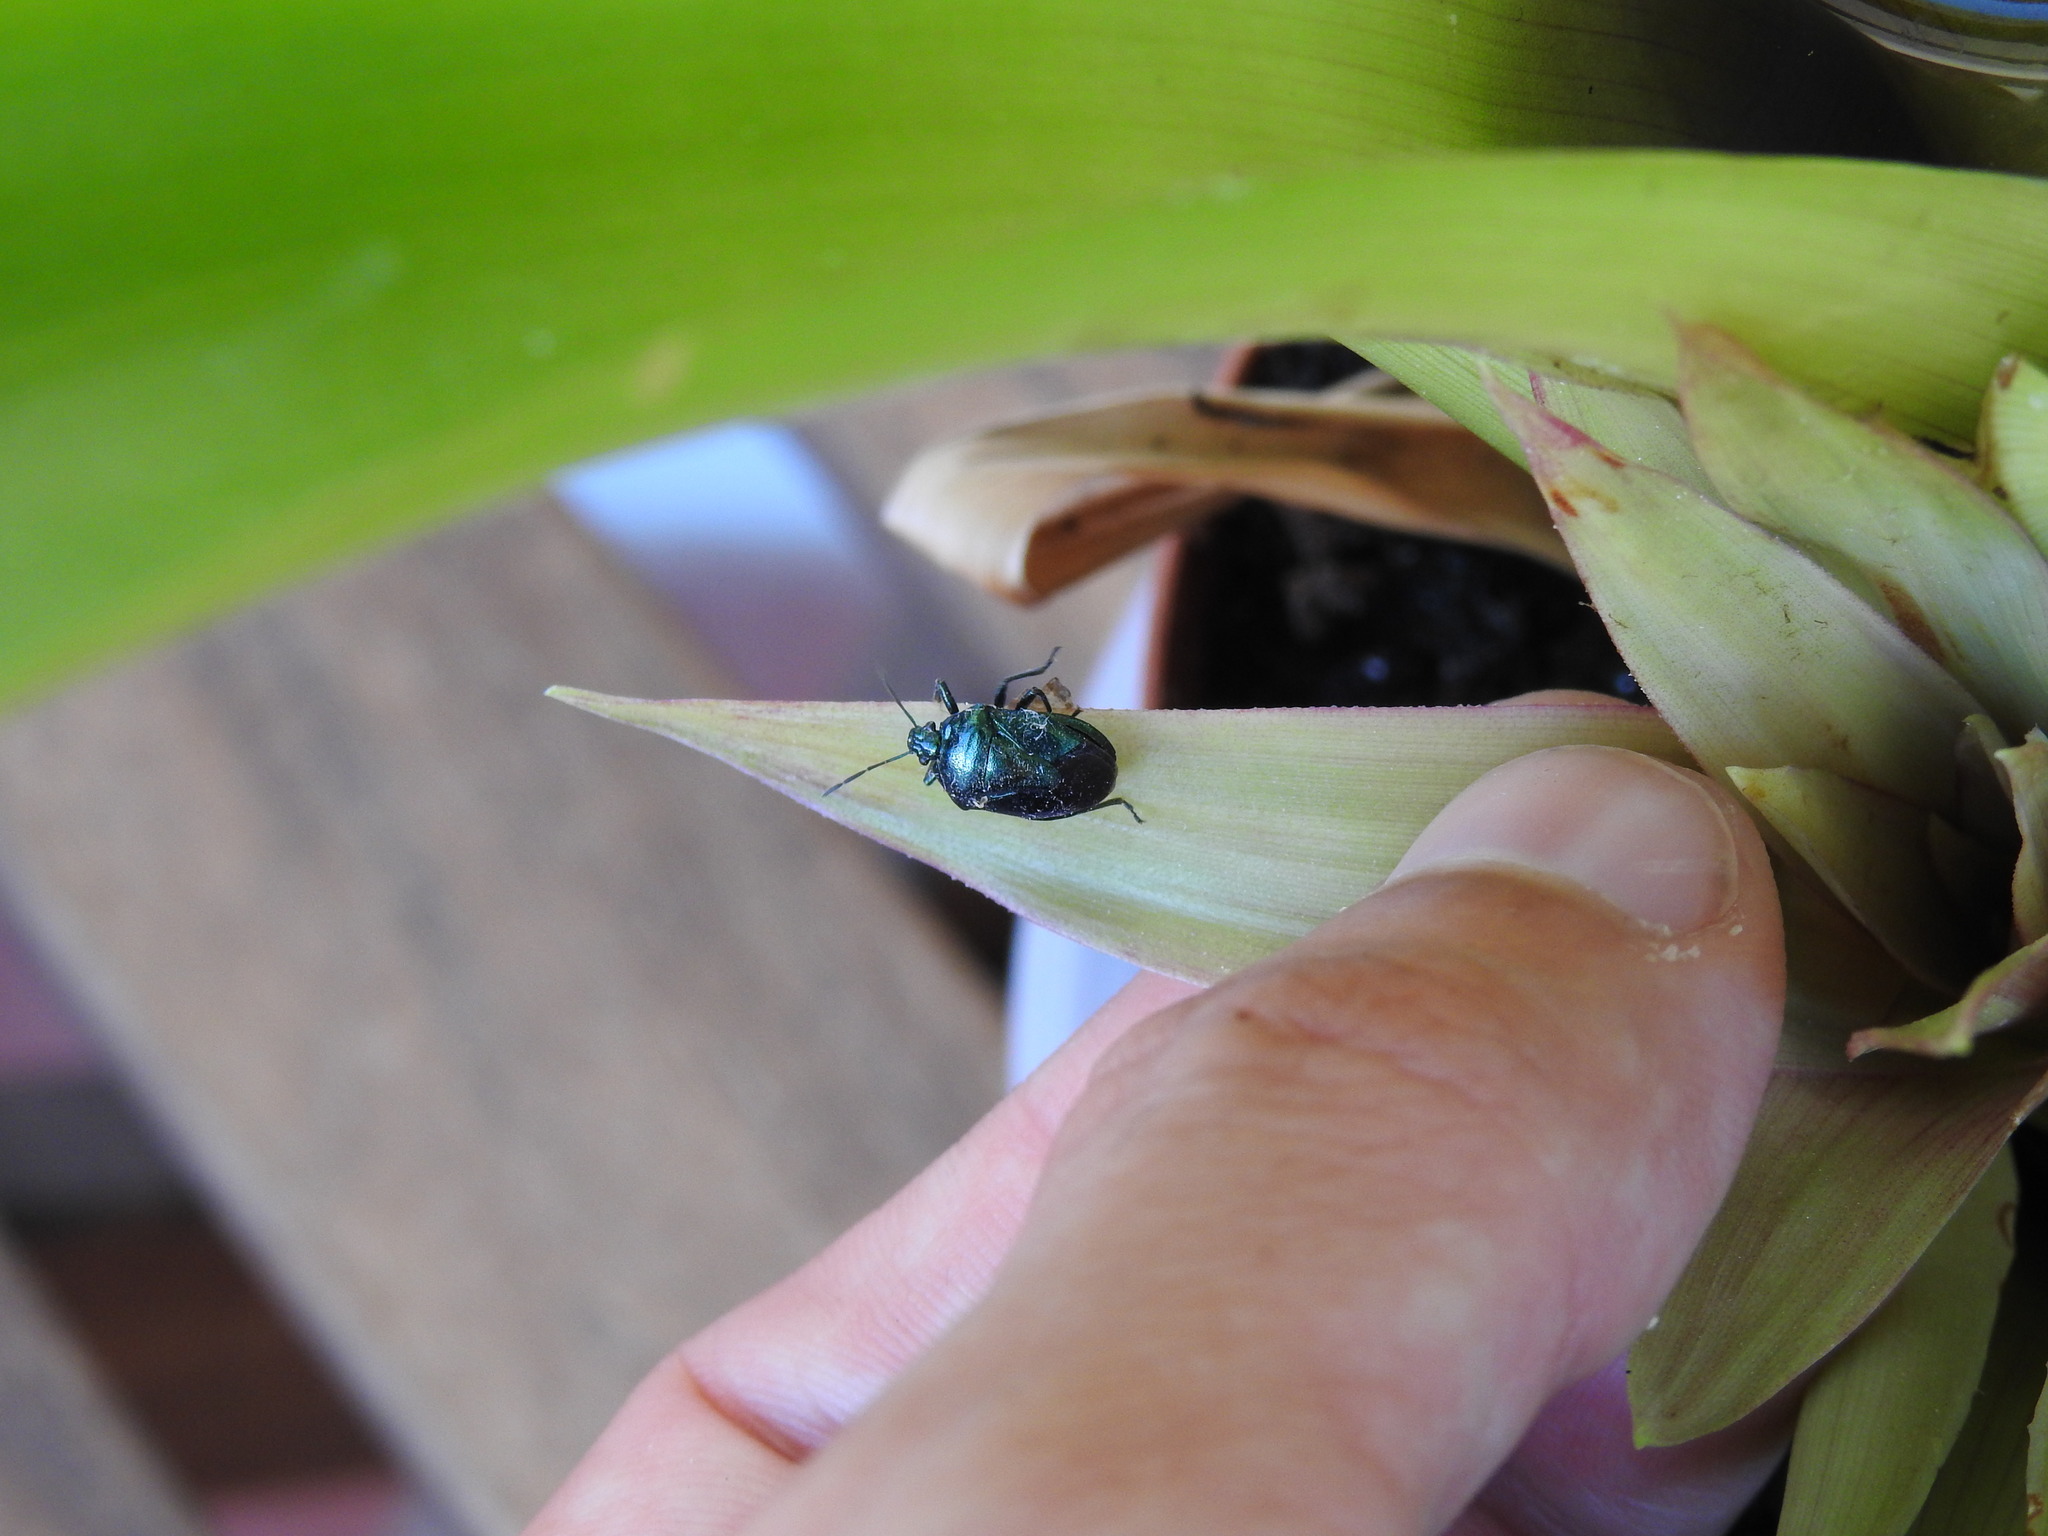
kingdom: Animalia
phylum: Arthropoda
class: Insecta
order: Hemiptera
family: Pentatomidae
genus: Zicrona
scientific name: Zicrona caerulea
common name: Blue shieldbug
